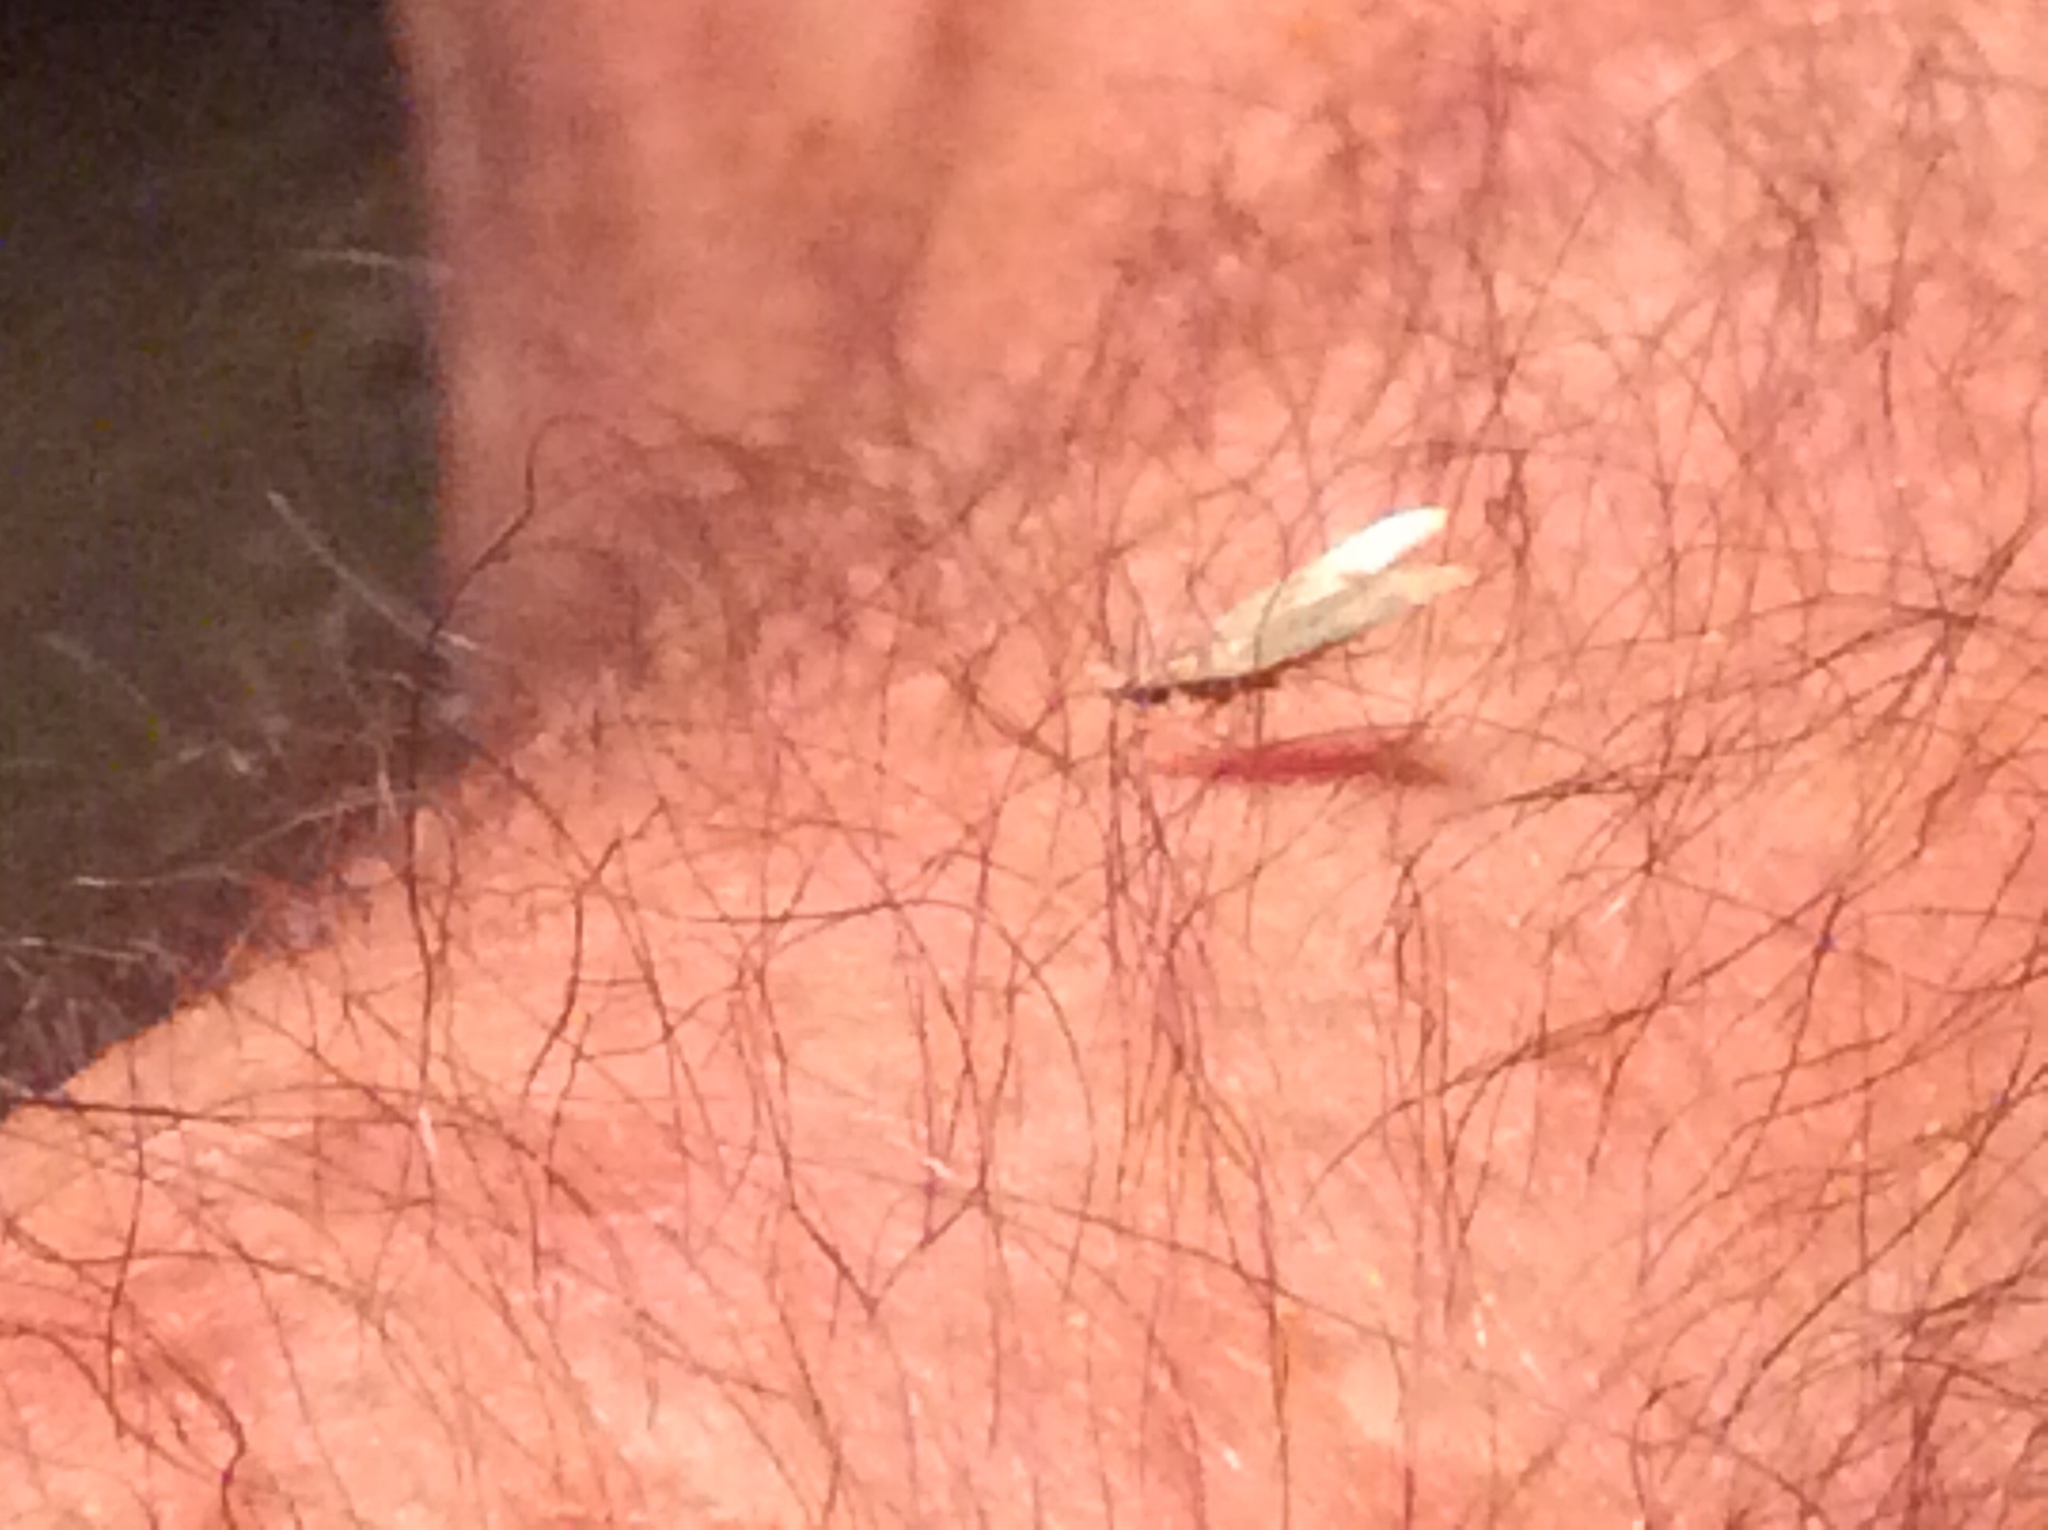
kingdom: Animalia
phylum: Arthropoda
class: Insecta
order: Lepidoptera
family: Gelechiidae
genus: Dichomeris
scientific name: Dichomeris punctipennella
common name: Many-spotted dichomeris moth
